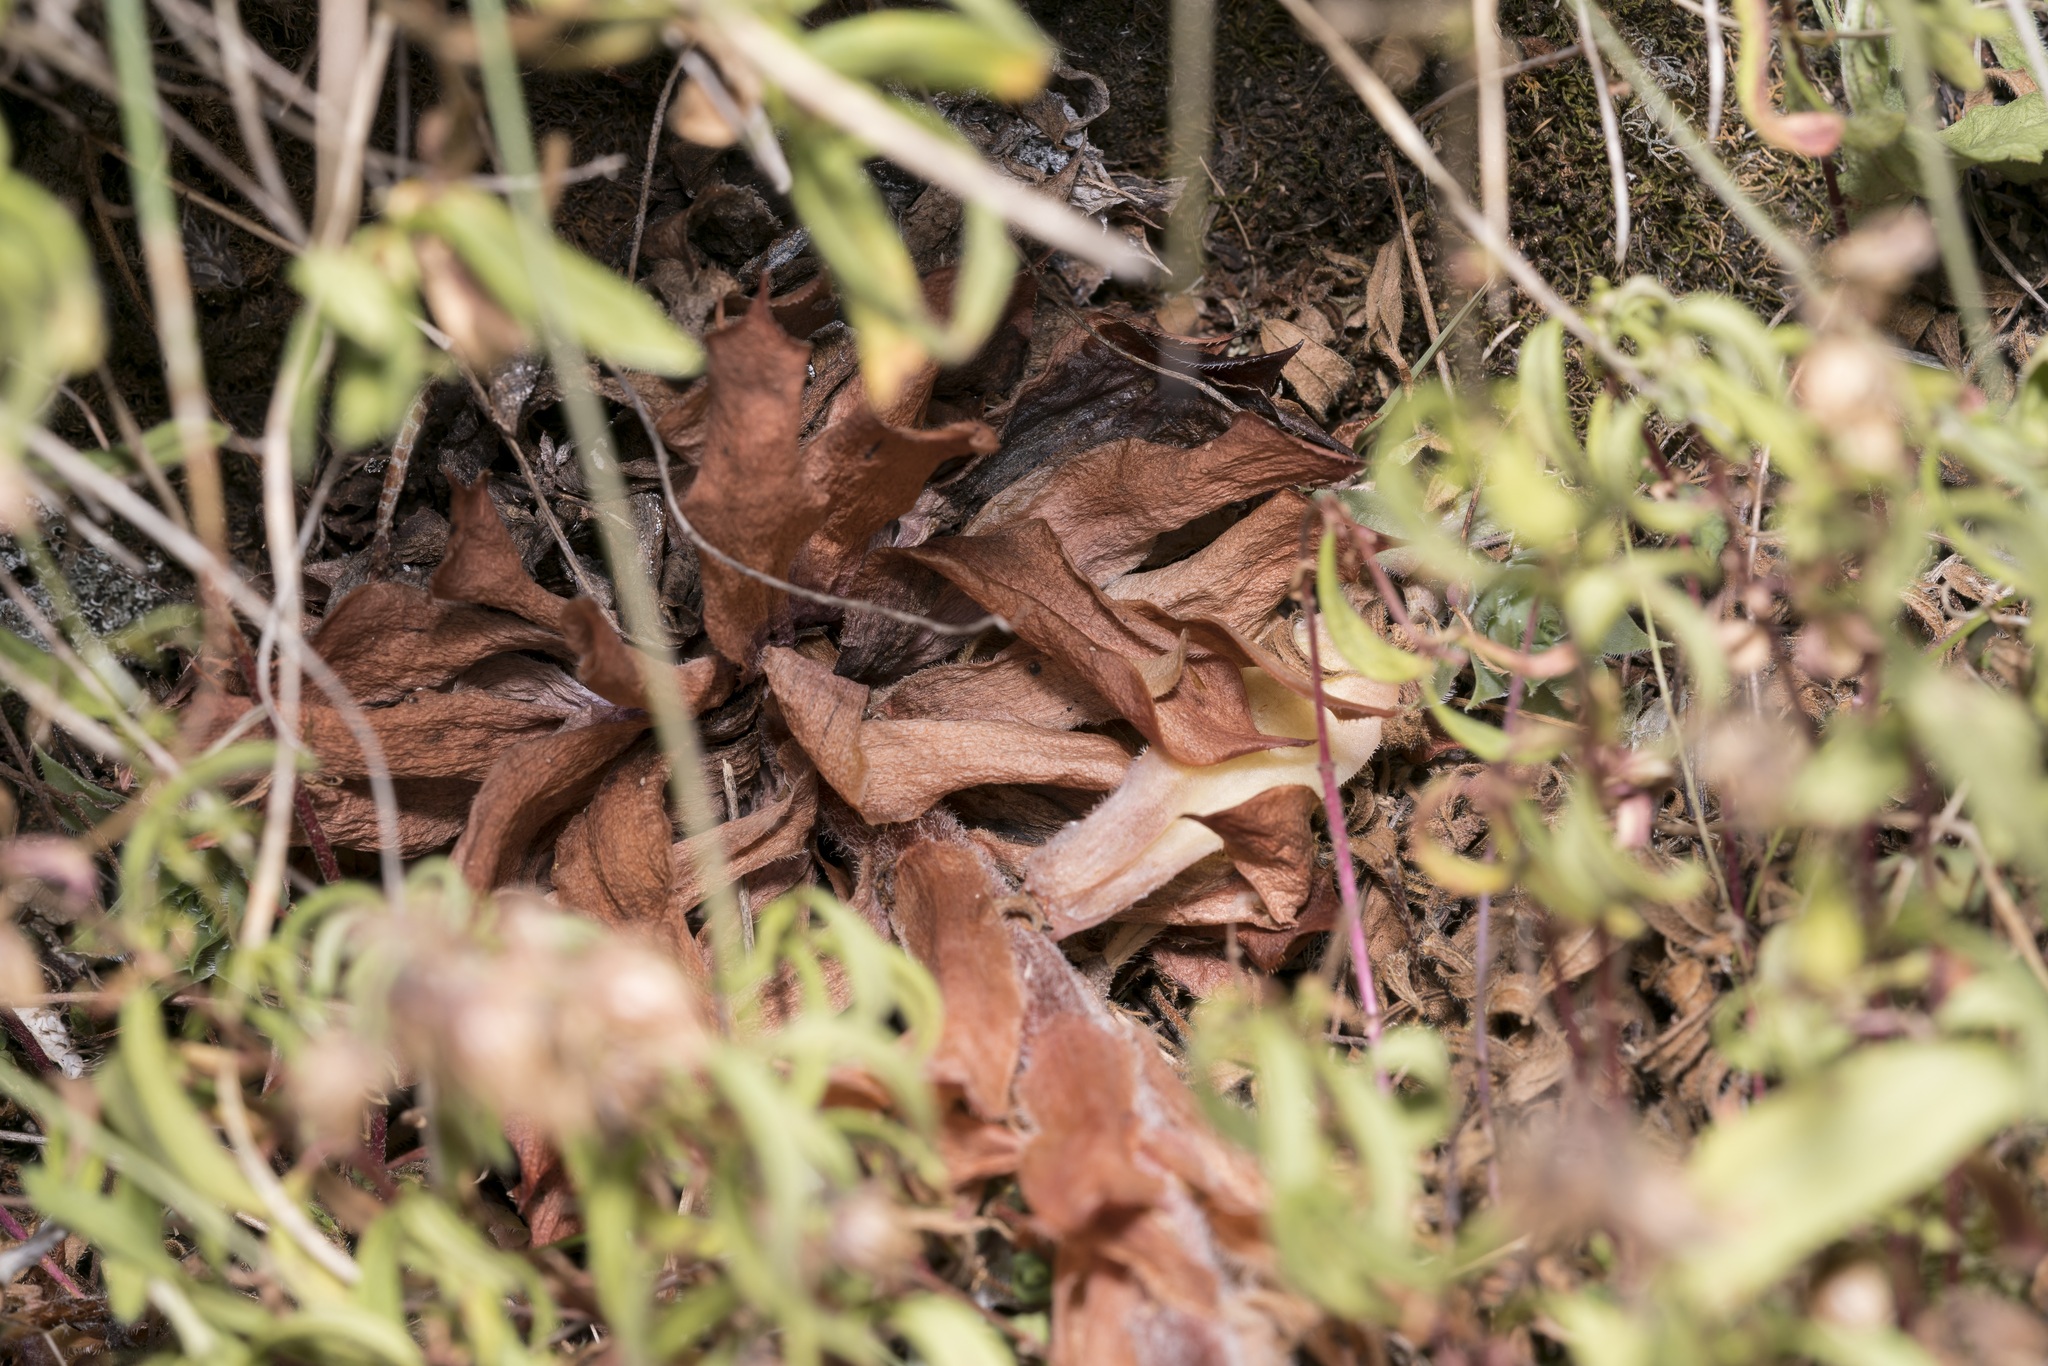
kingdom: Plantae
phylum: Tracheophyta
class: Magnoliopsida
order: Saxifragales
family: Crassulaceae
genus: Sempervivum
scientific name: Sempervivum tectorum
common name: House-leek
